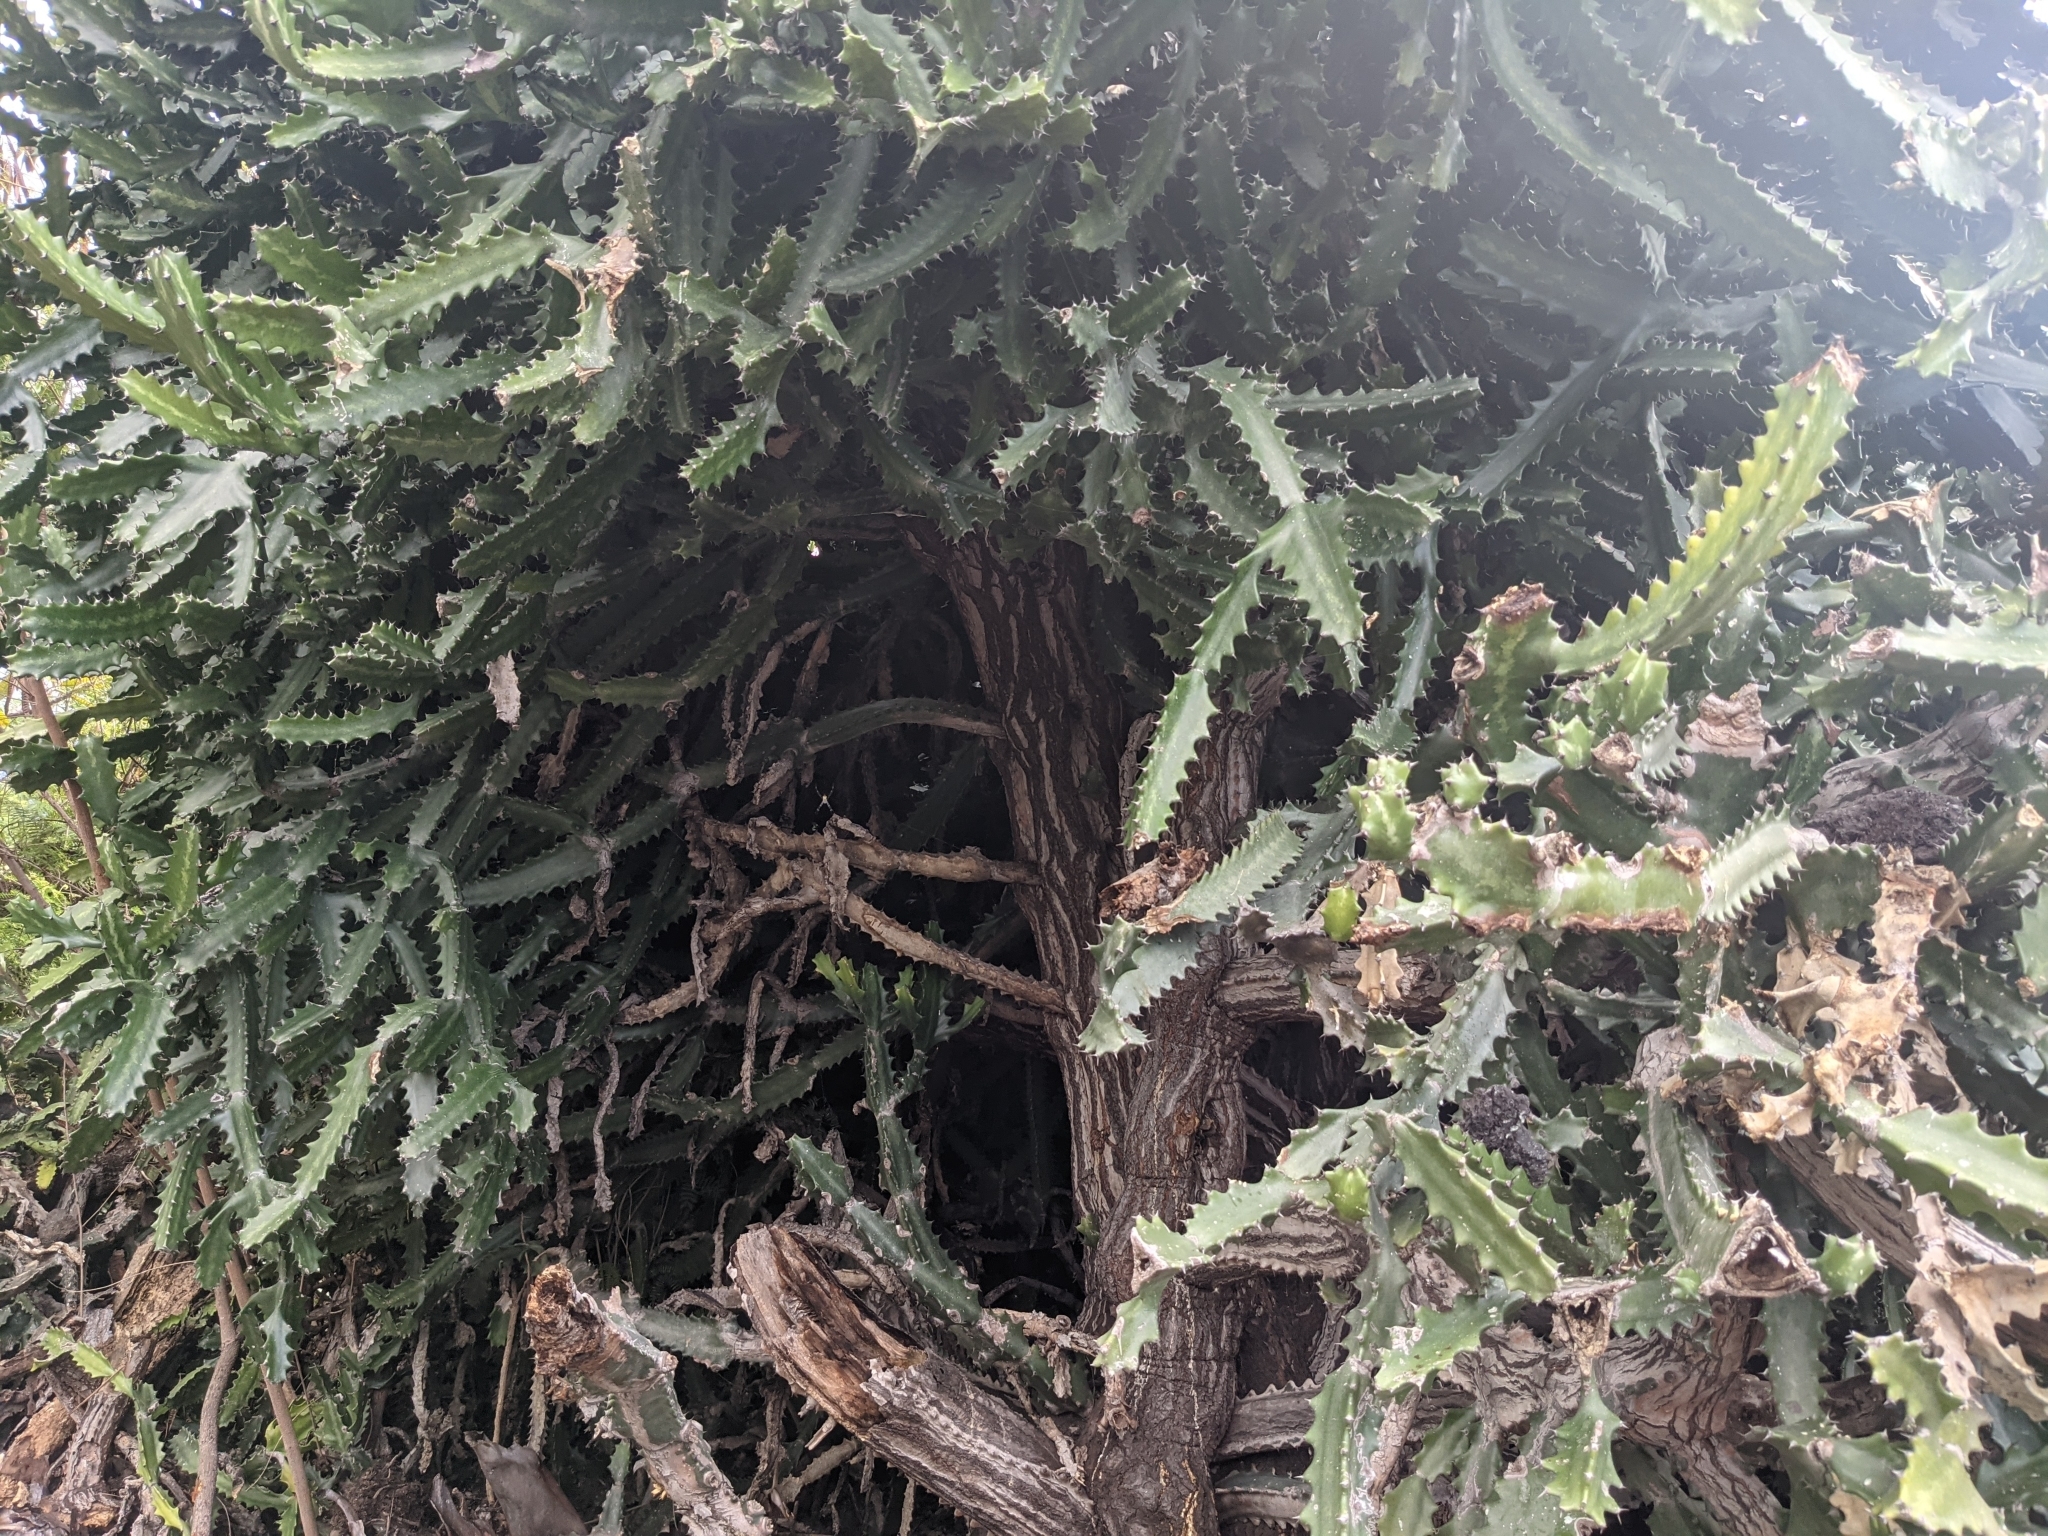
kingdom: Plantae
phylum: Tracheophyta
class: Magnoliopsida
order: Malpighiales
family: Euphorbiaceae
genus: Euphorbia
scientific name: Euphorbia lactea
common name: Mottled spurge
